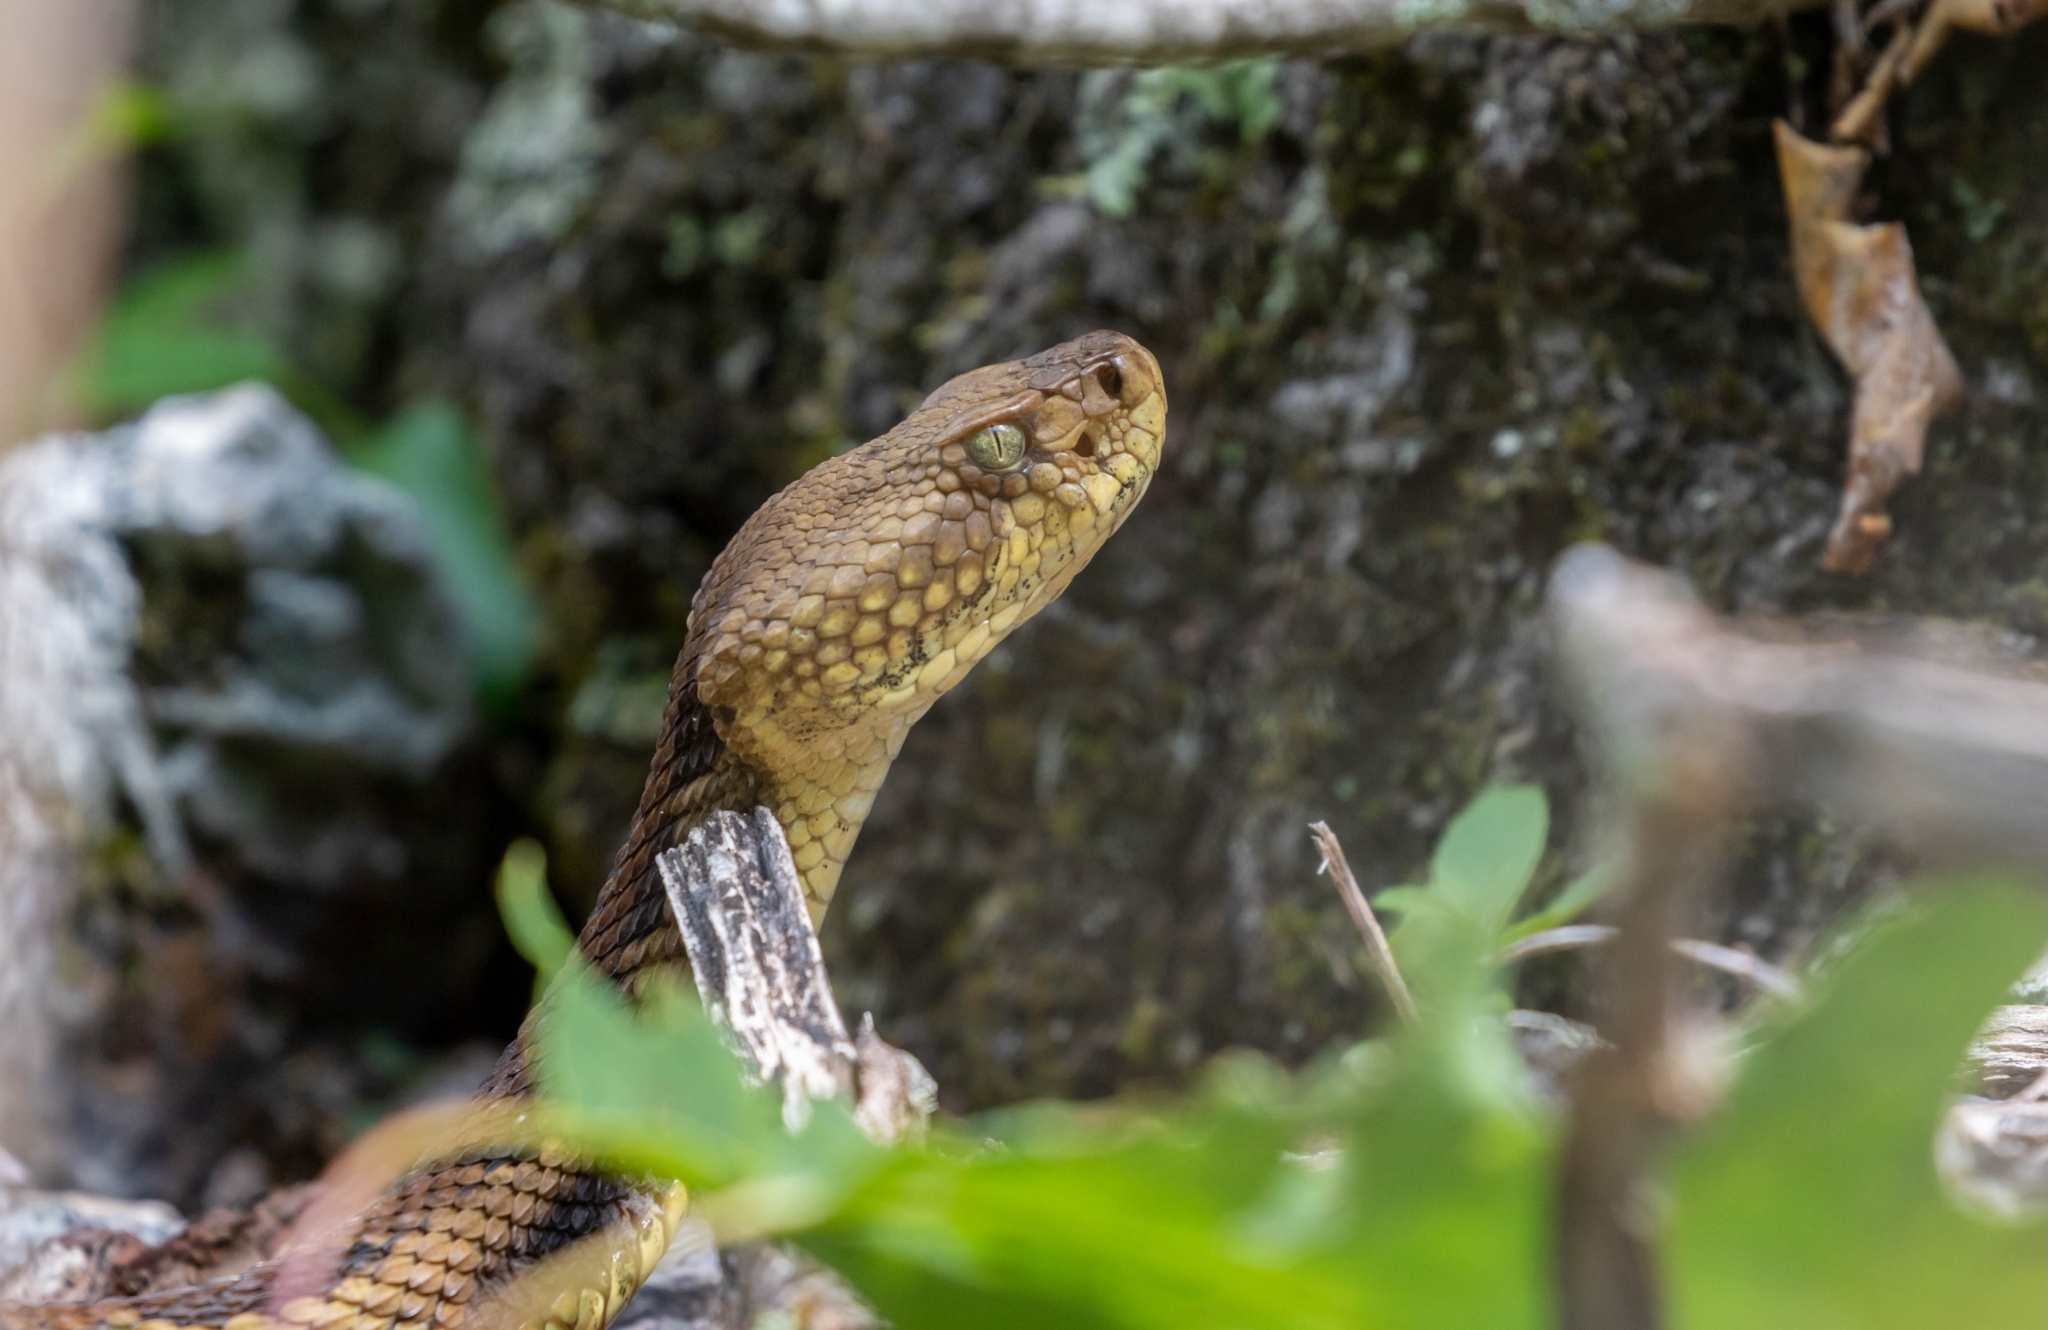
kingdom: Animalia
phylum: Chordata
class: Squamata
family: Viperidae
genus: Crotalus
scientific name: Crotalus horridus
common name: Timber rattlesnake
